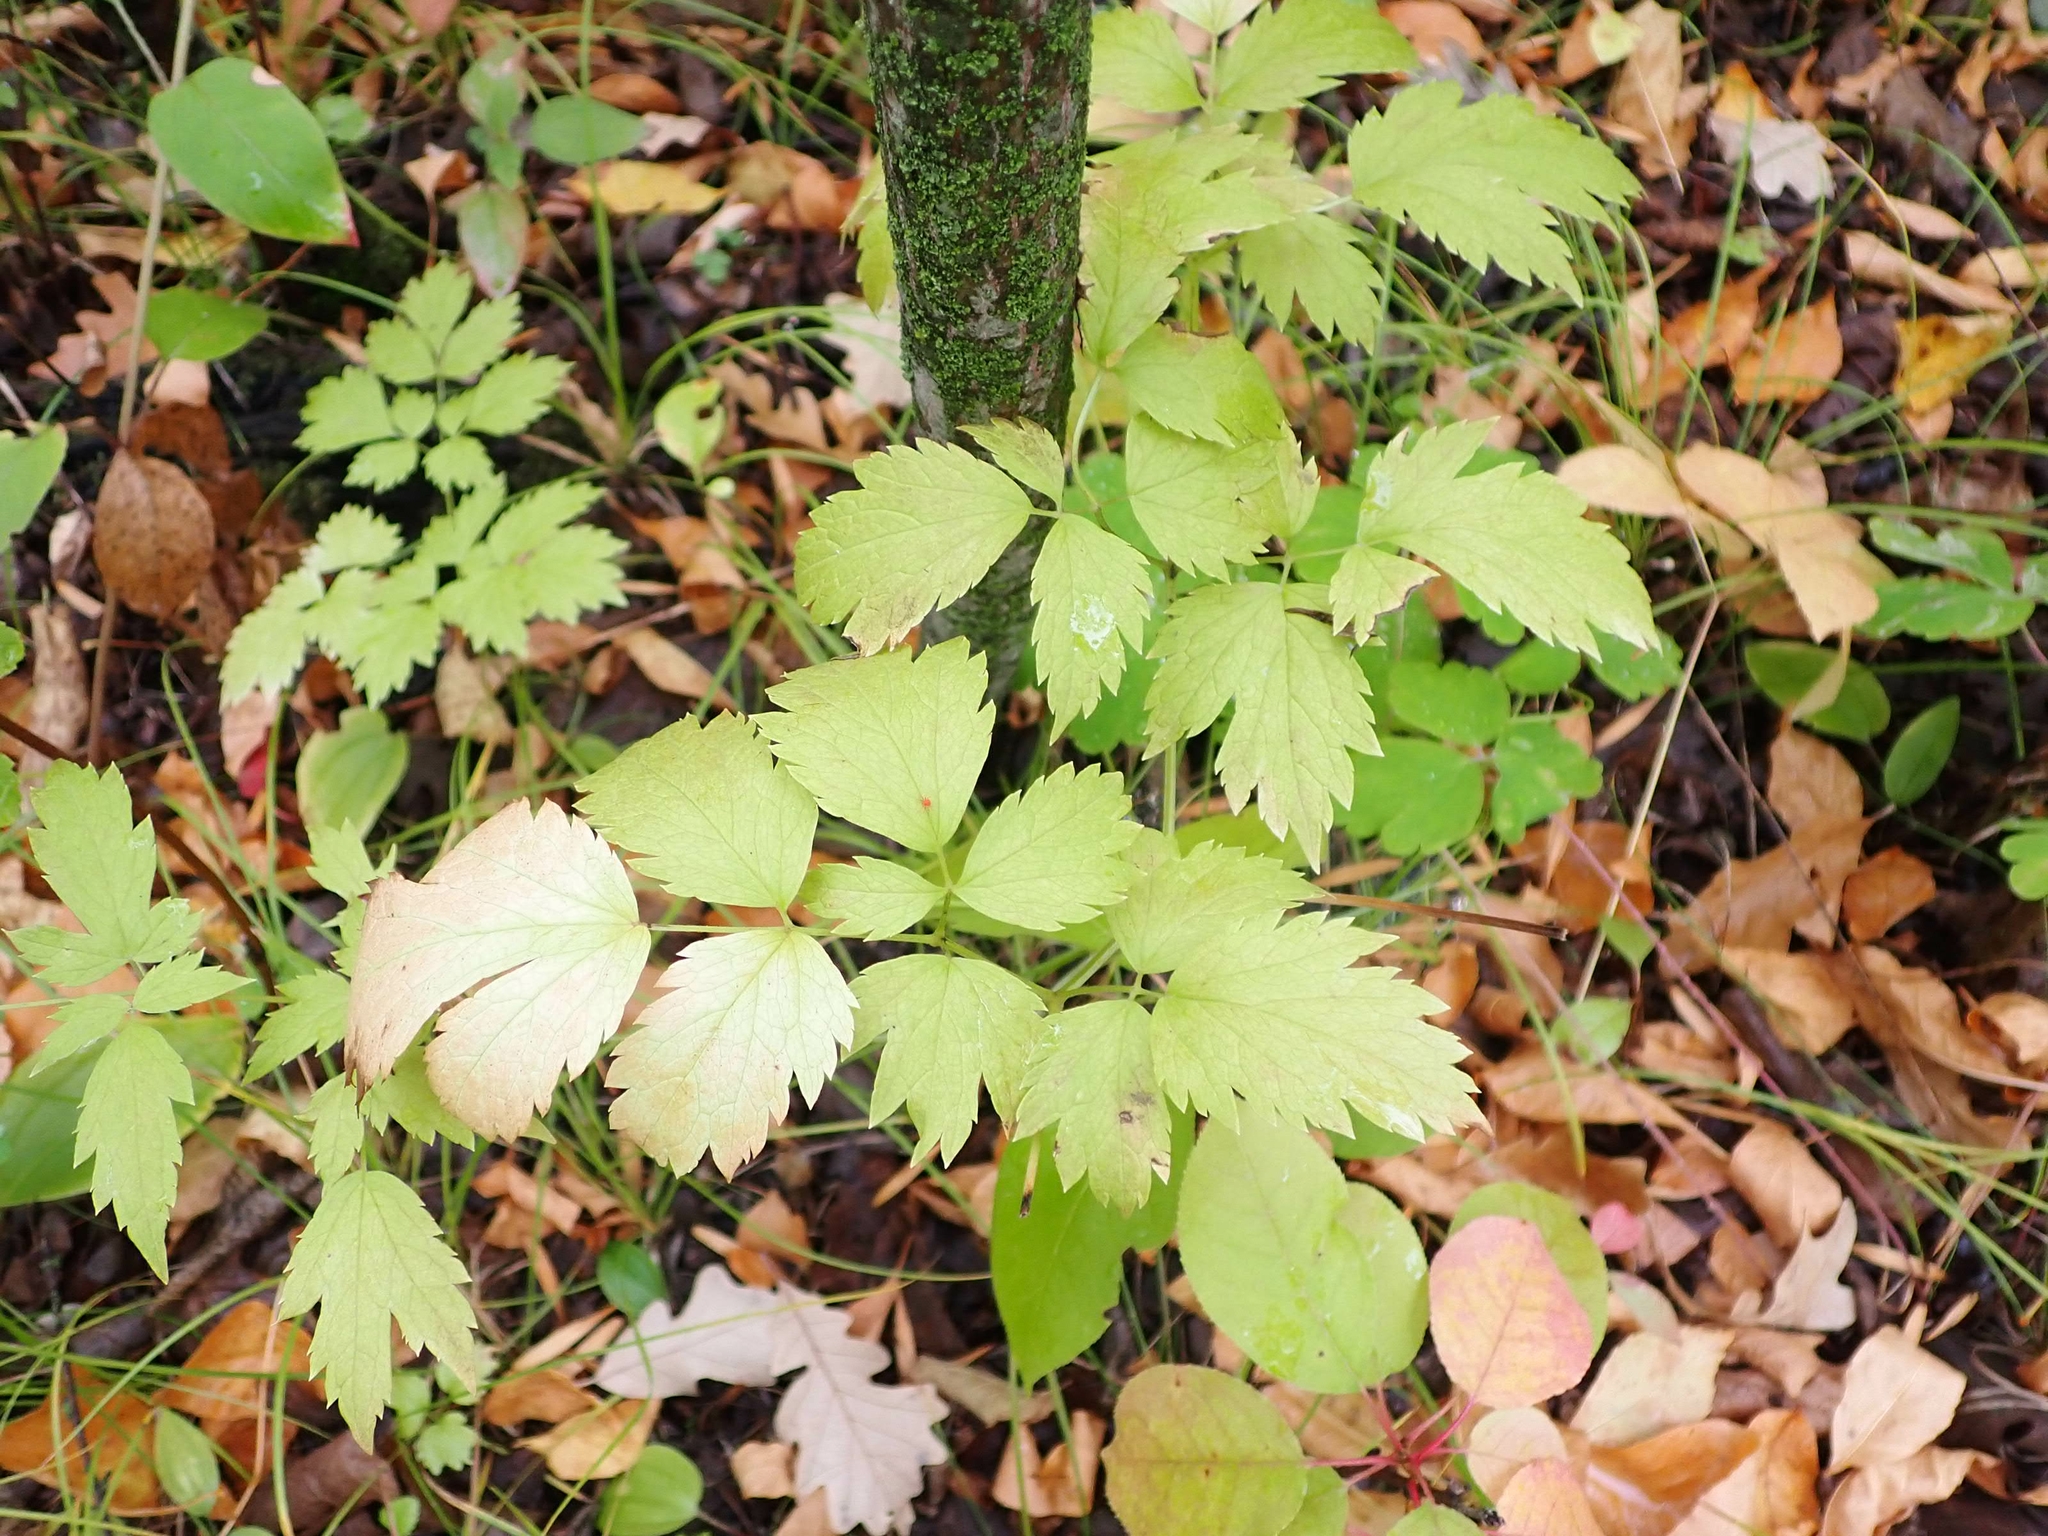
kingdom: Plantae
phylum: Tracheophyta
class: Magnoliopsida
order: Ranunculales
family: Ranunculaceae
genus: Actaea
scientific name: Actaea rubra
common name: Red baneberry
